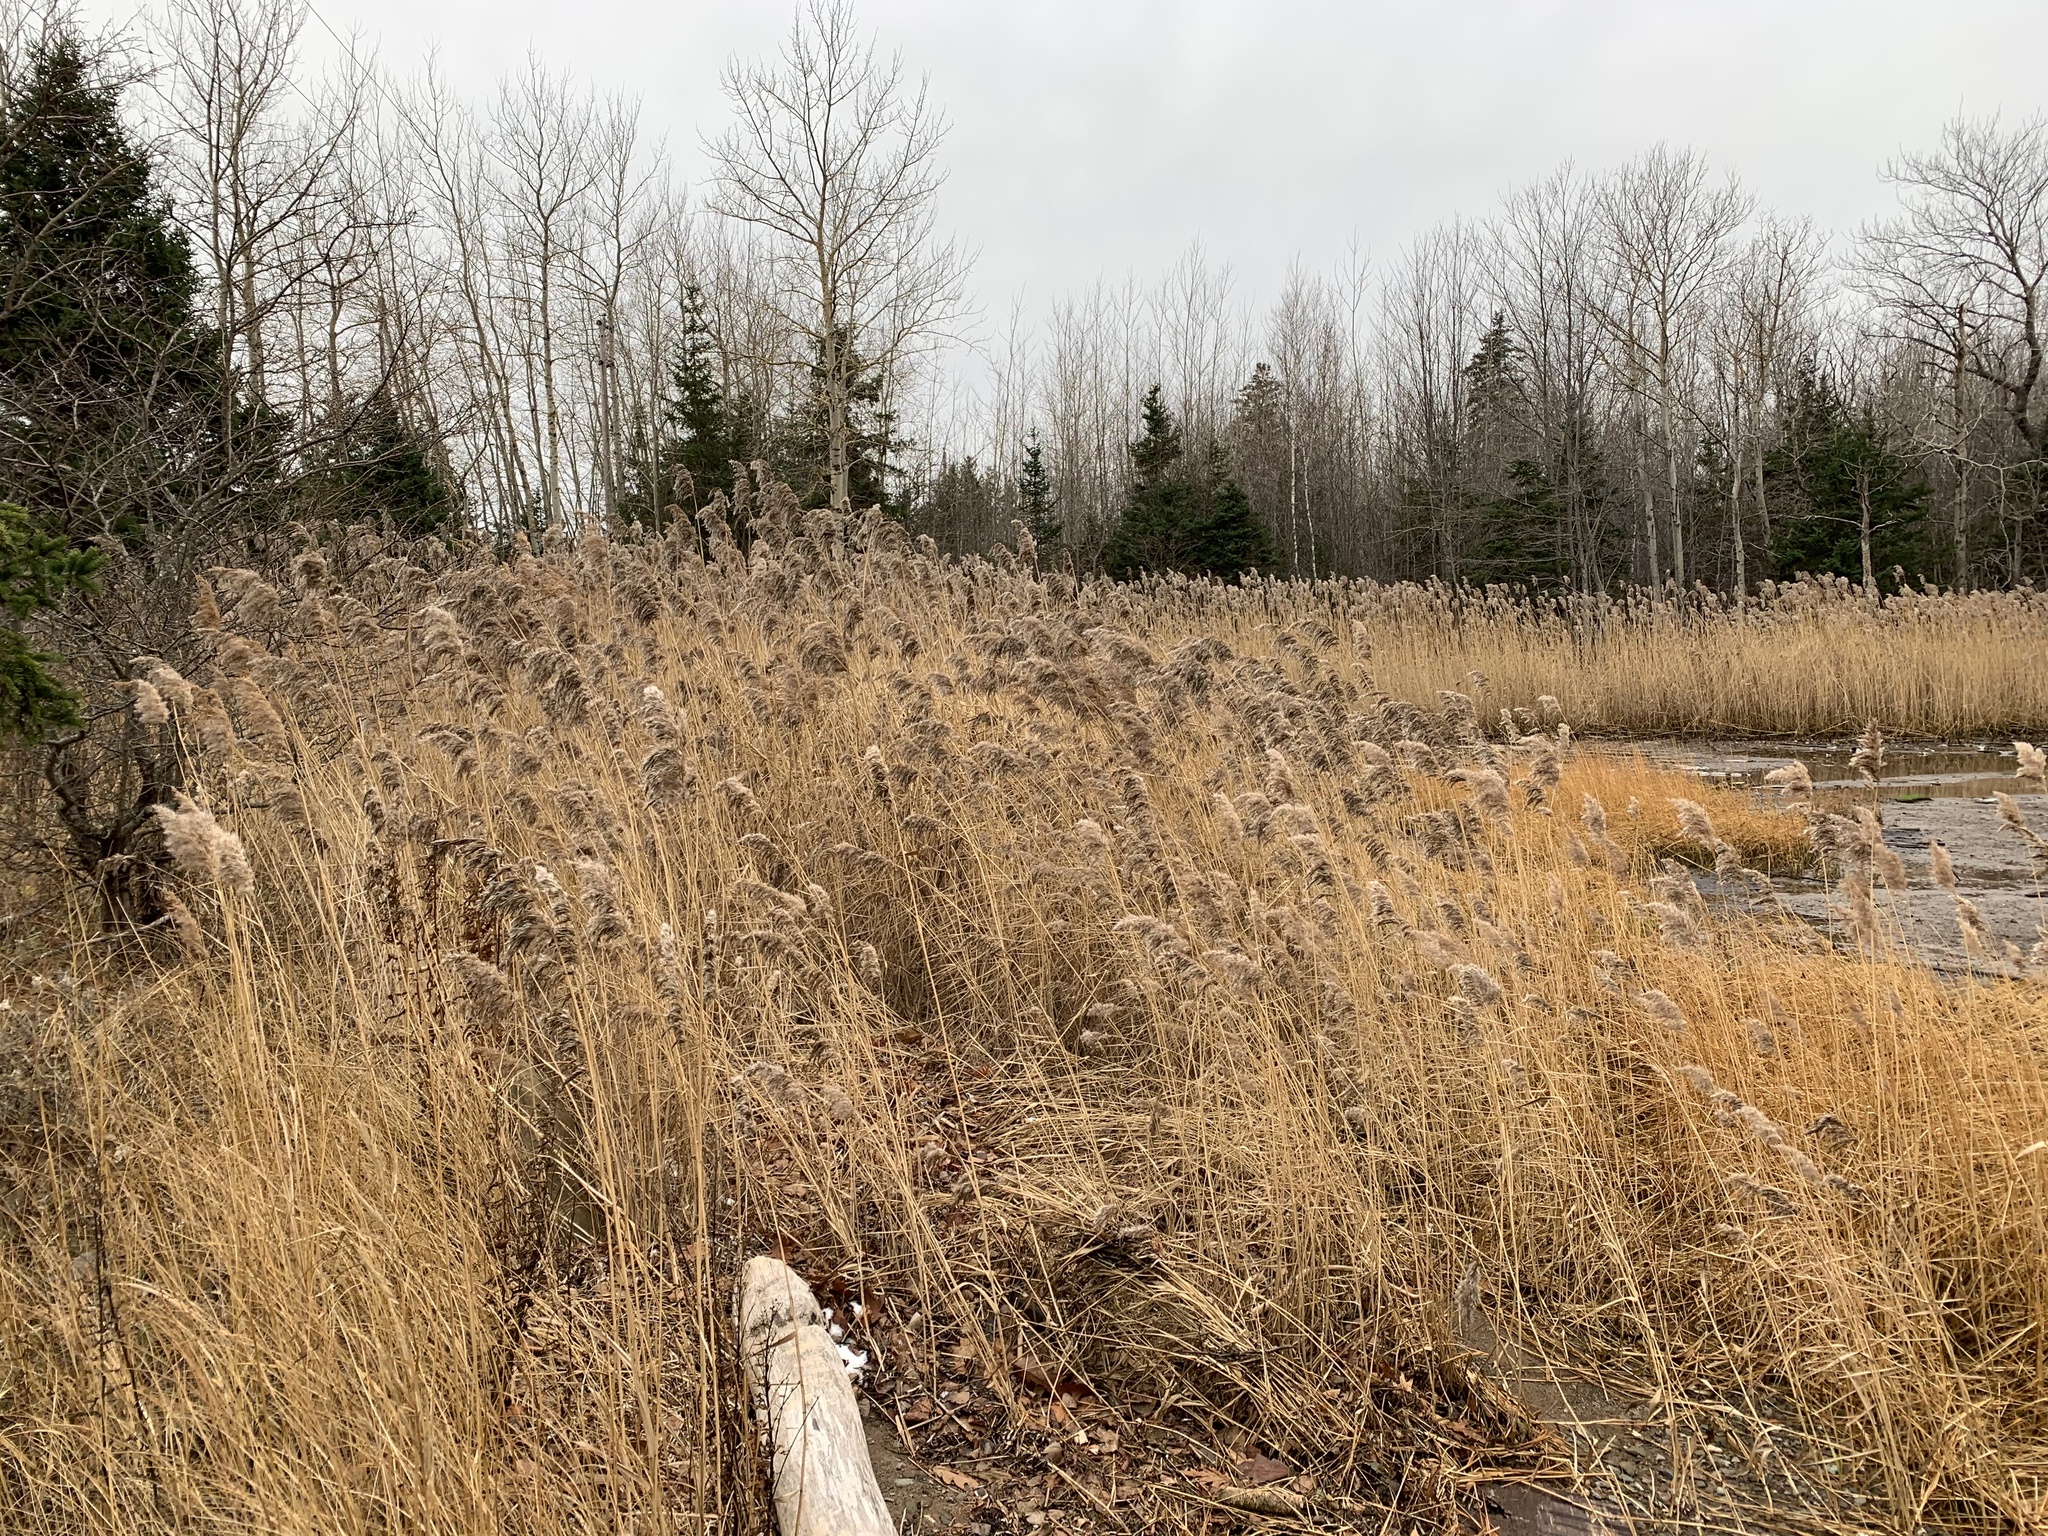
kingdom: Plantae
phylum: Tracheophyta
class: Liliopsida
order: Poales
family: Poaceae
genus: Phragmites
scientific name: Phragmites australis
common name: Common reed
